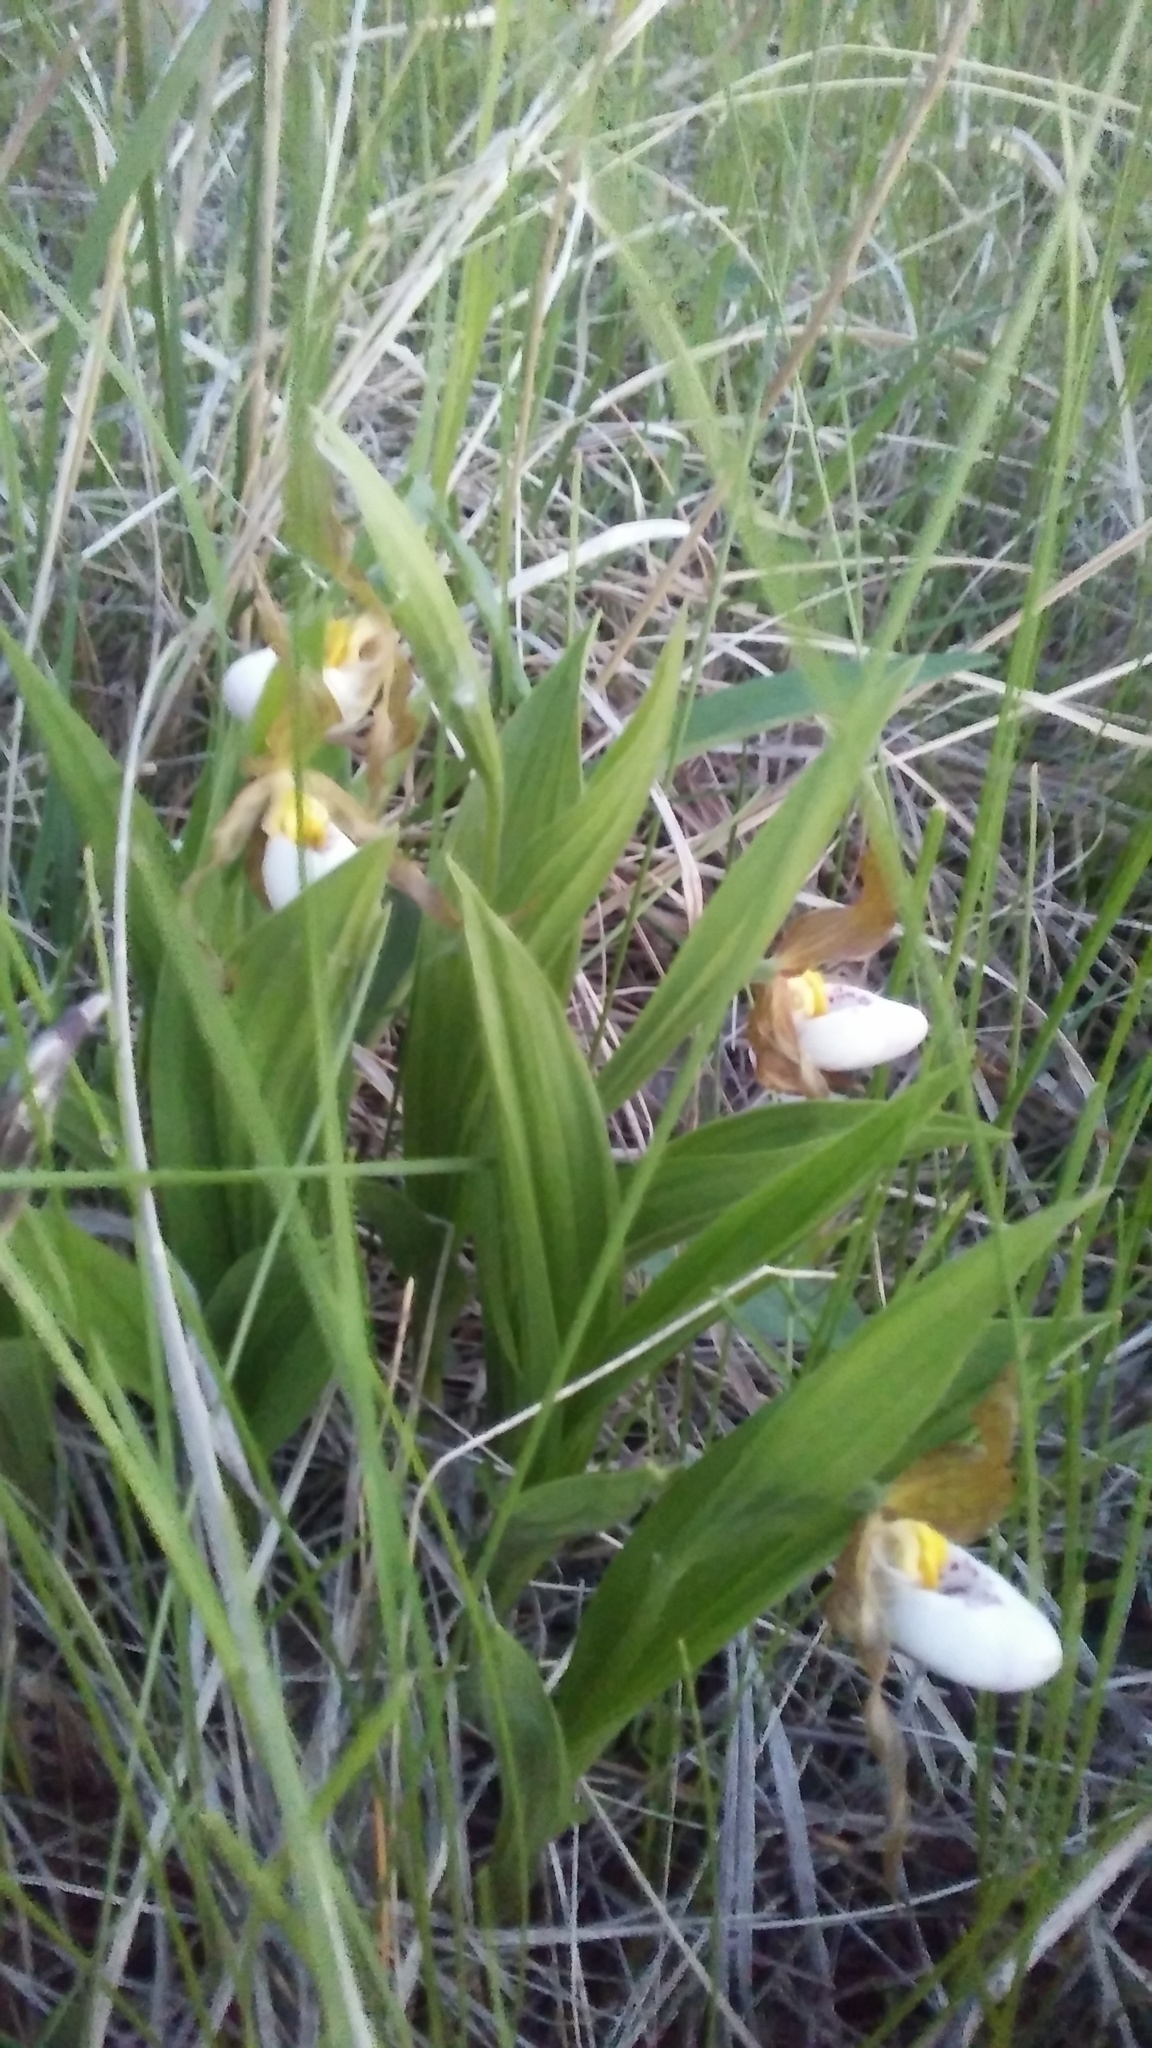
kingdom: Plantae
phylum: Tracheophyta
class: Liliopsida
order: Asparagales
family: Orchidaceae
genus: Cypripedium
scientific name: Cypripedium candidum
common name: White lady's-slipper
